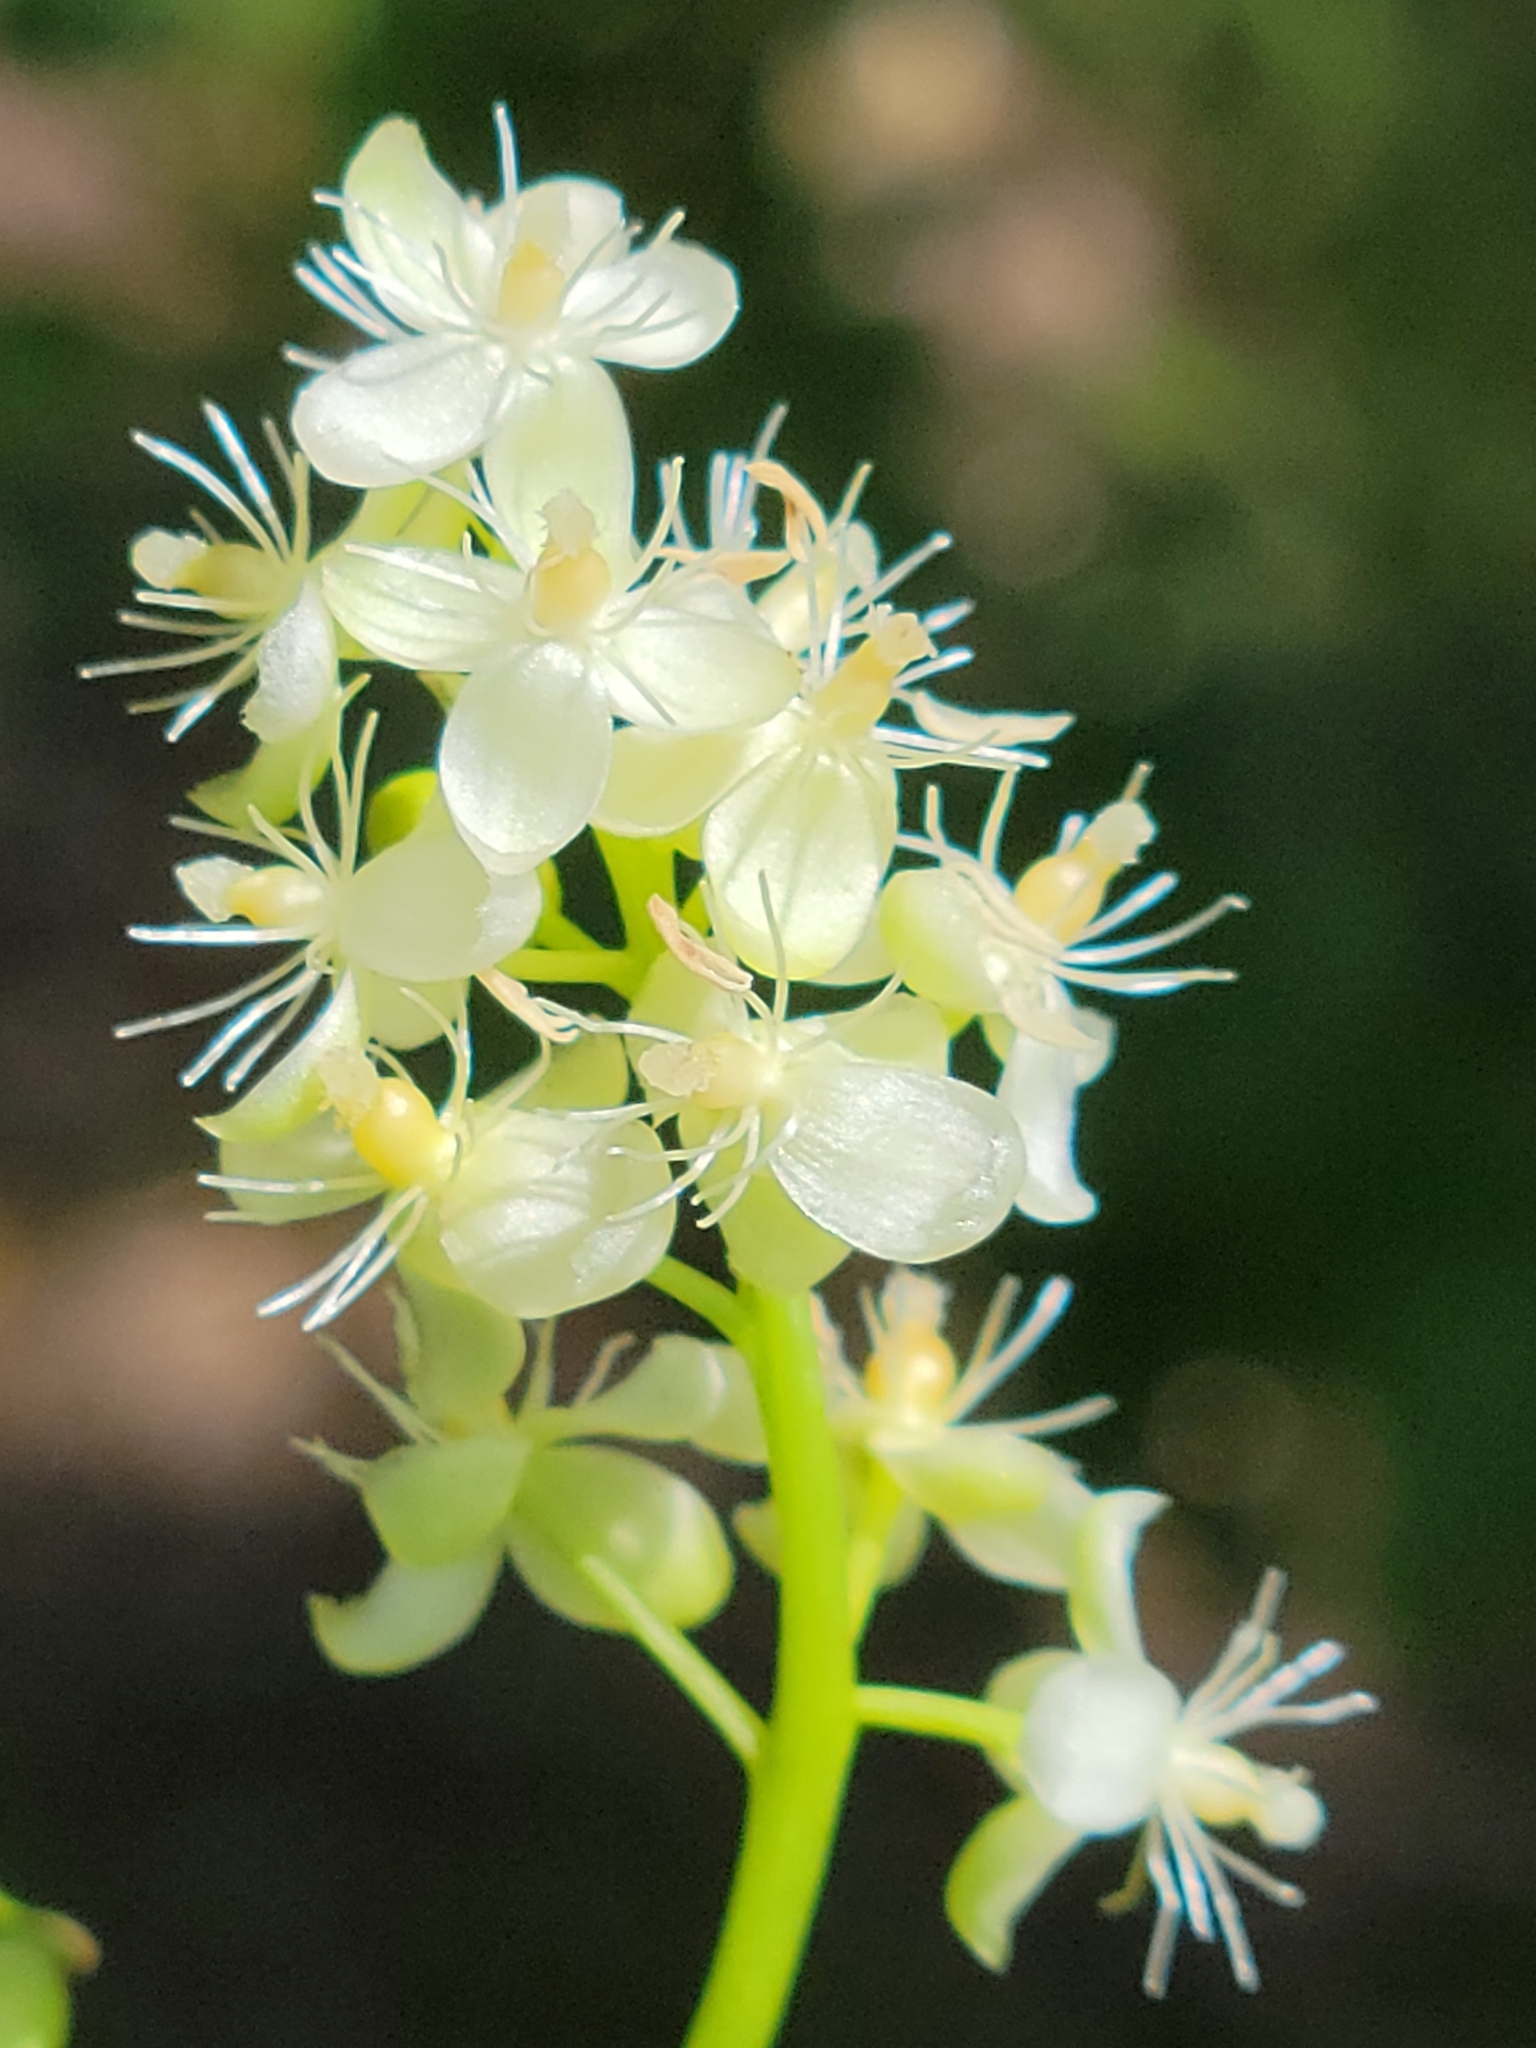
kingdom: Plantae
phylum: Tracheophyta
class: Magnoliopsida
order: Caryophyllales
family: Phytolaccaceae
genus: Trichostigma
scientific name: Trichostigma octandrum
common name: Basket wiss
